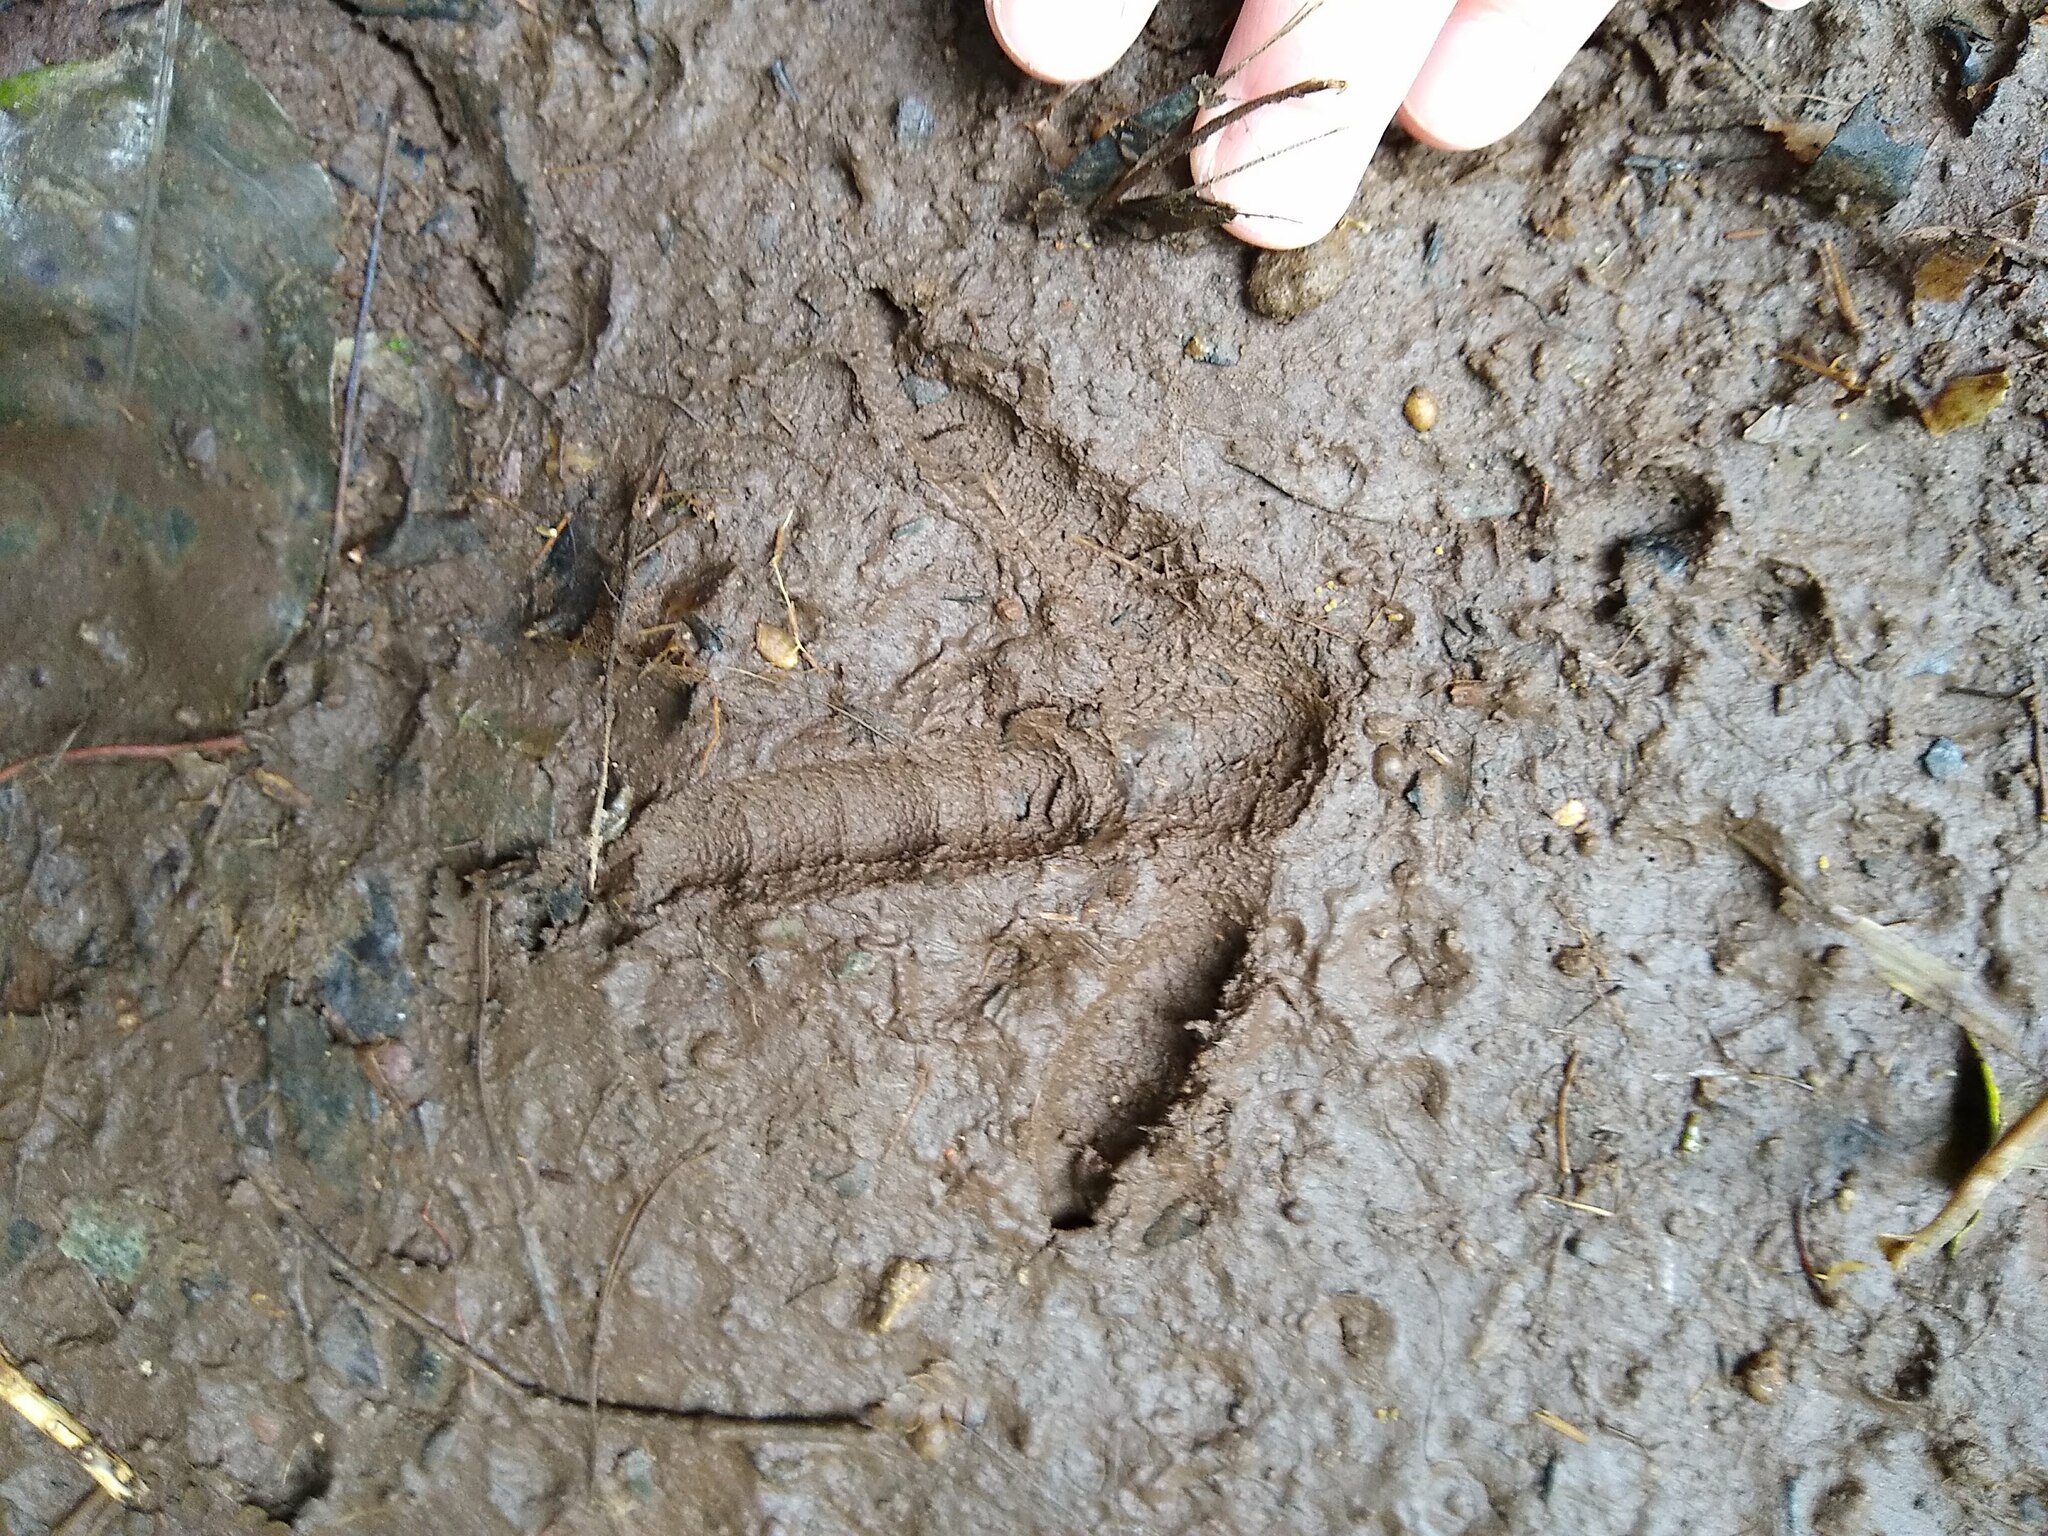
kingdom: Animalia
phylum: Chordata
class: Aves
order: Apterygiformes
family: Apterygidae
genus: Apteryx
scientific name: Apteryx mantelli
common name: North island brown kiwi
